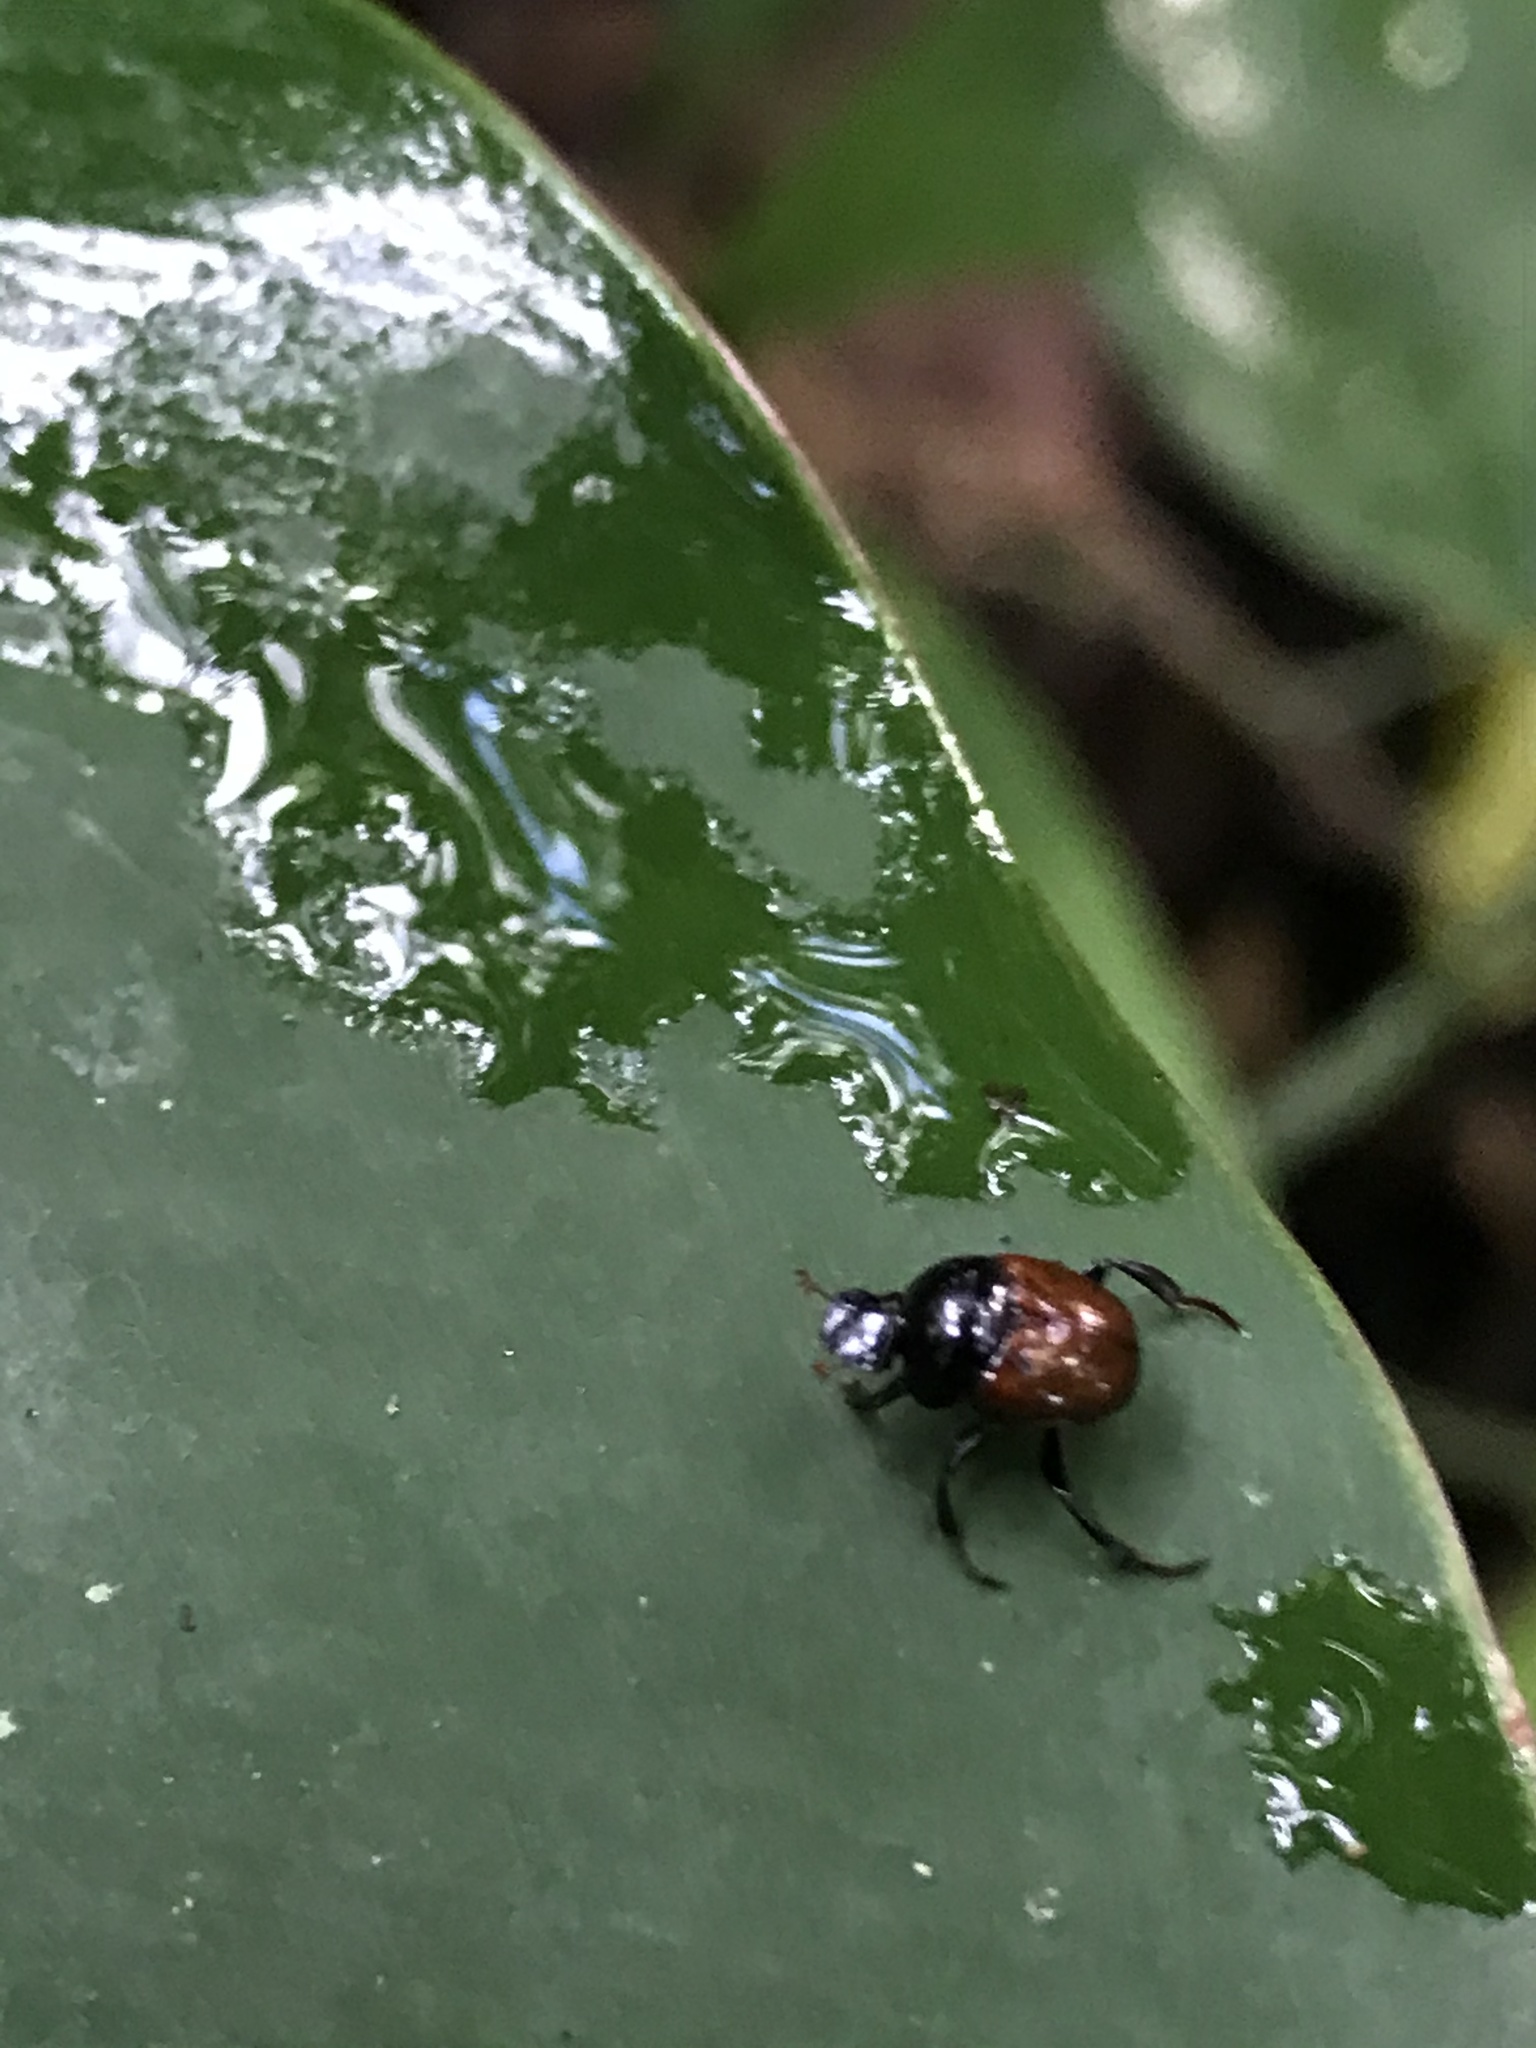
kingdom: Animalia
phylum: Arthropoda
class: Insecta
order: Coleoptera
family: Scarabaeidae
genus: Canthon
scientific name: Canthon subhyalinus
